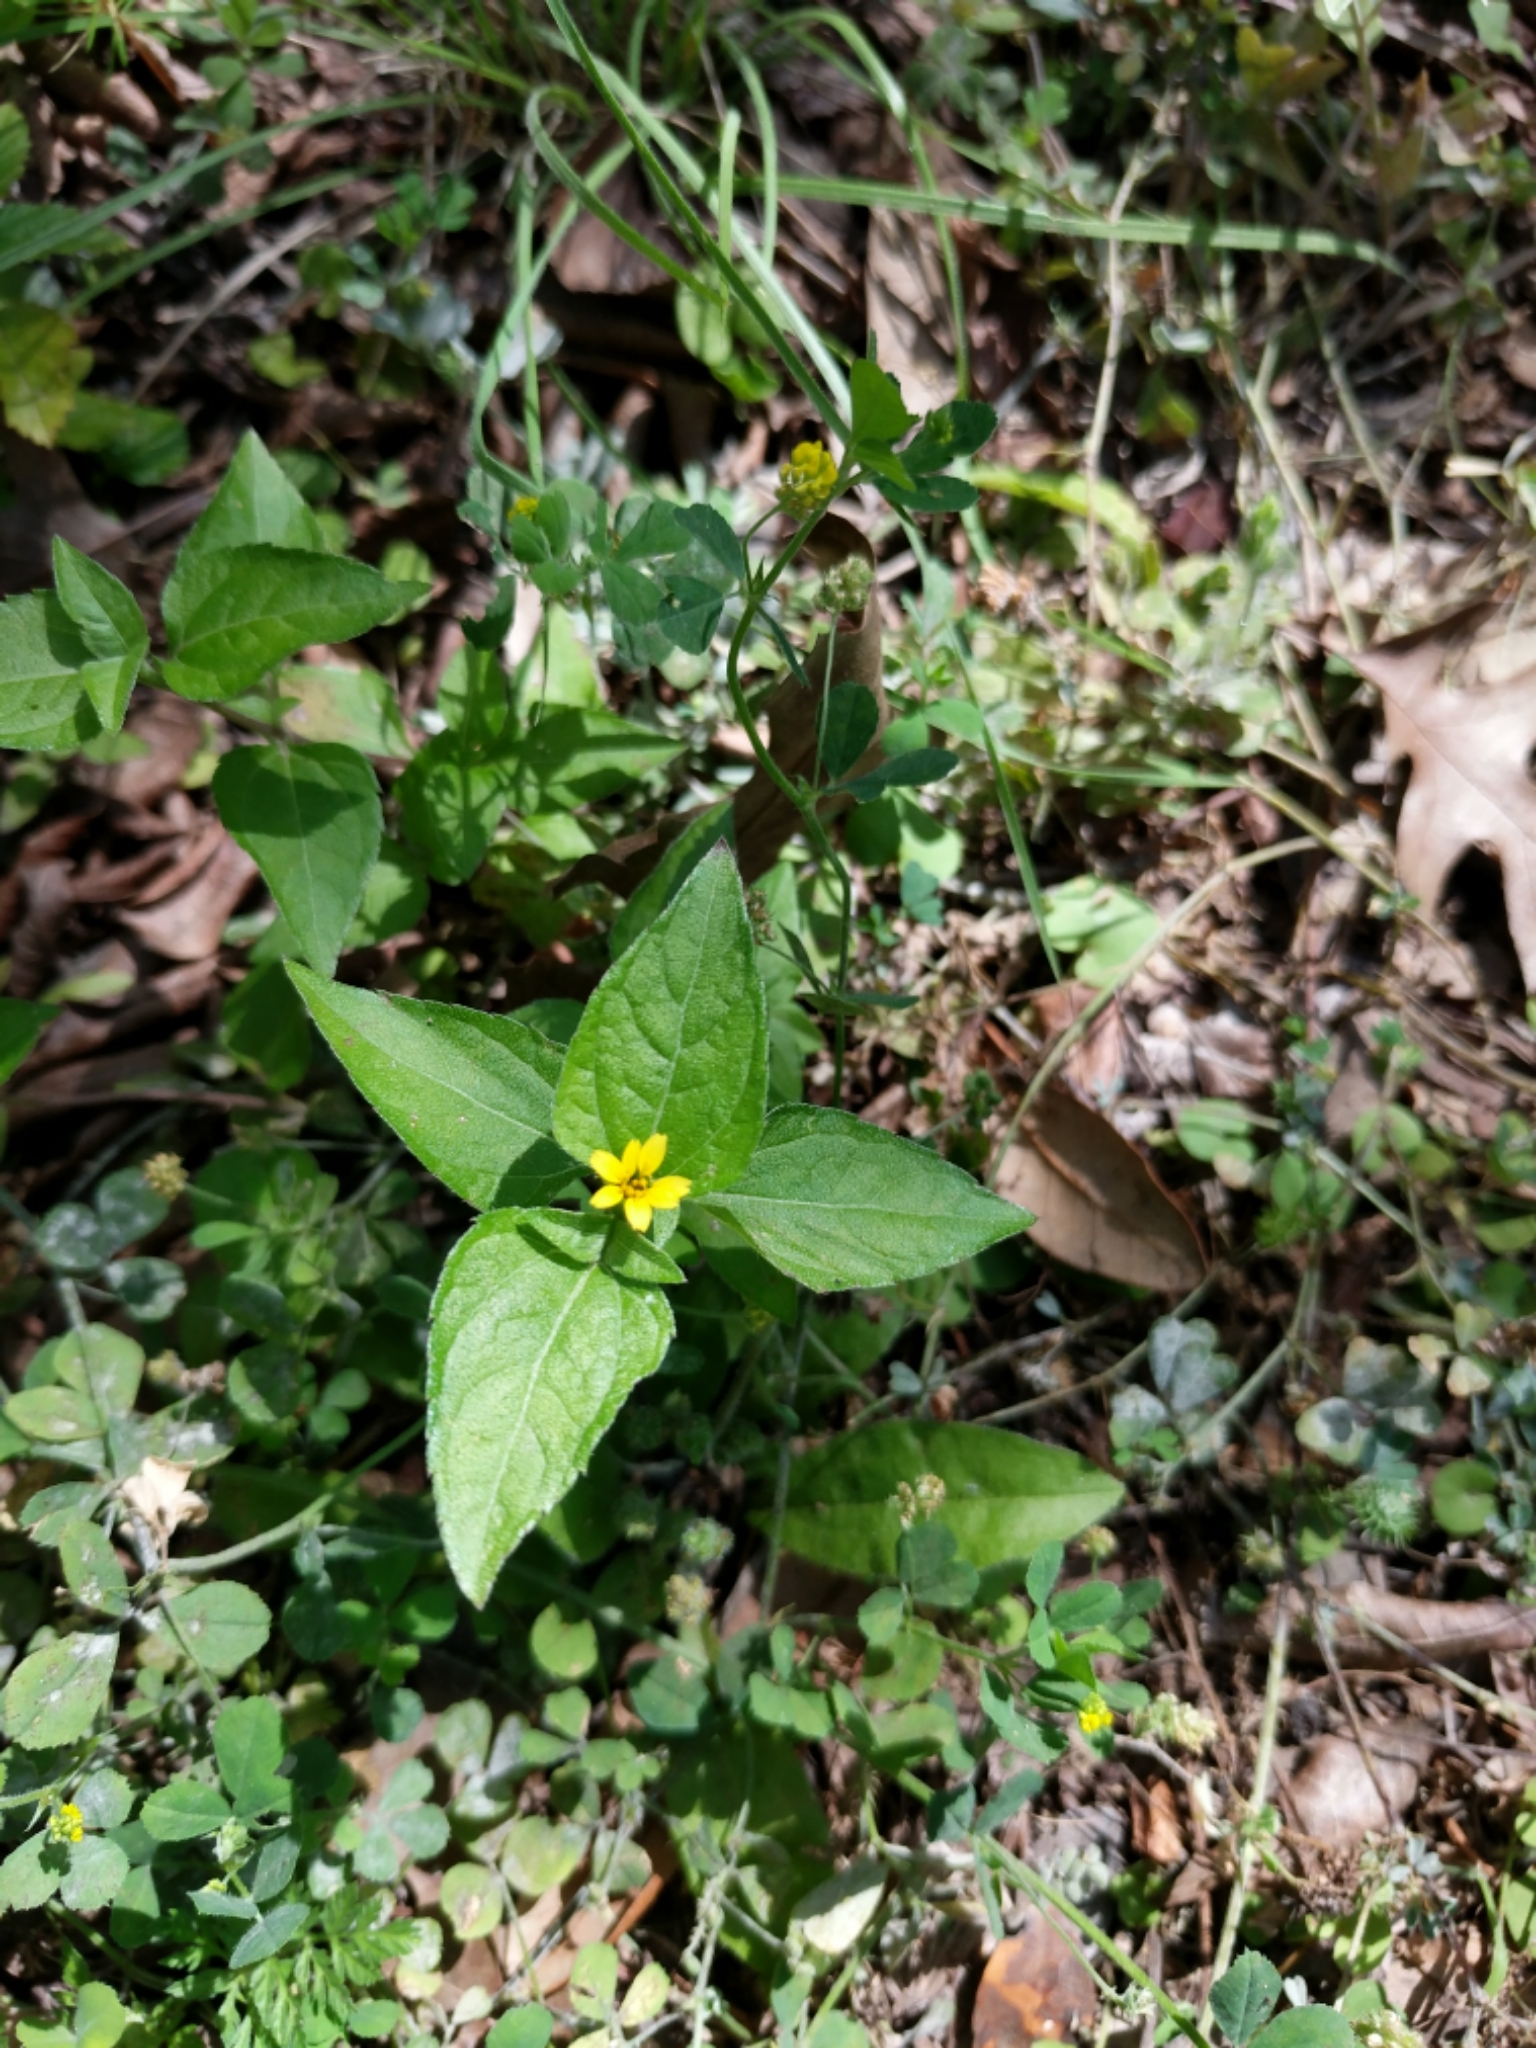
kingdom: Plantae
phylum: Tracheophyta
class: Magnoliopsida
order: Asterales
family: Asteraceae
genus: Calyptocarpus
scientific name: Calyptocarpus vialis
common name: Straggler daisy
